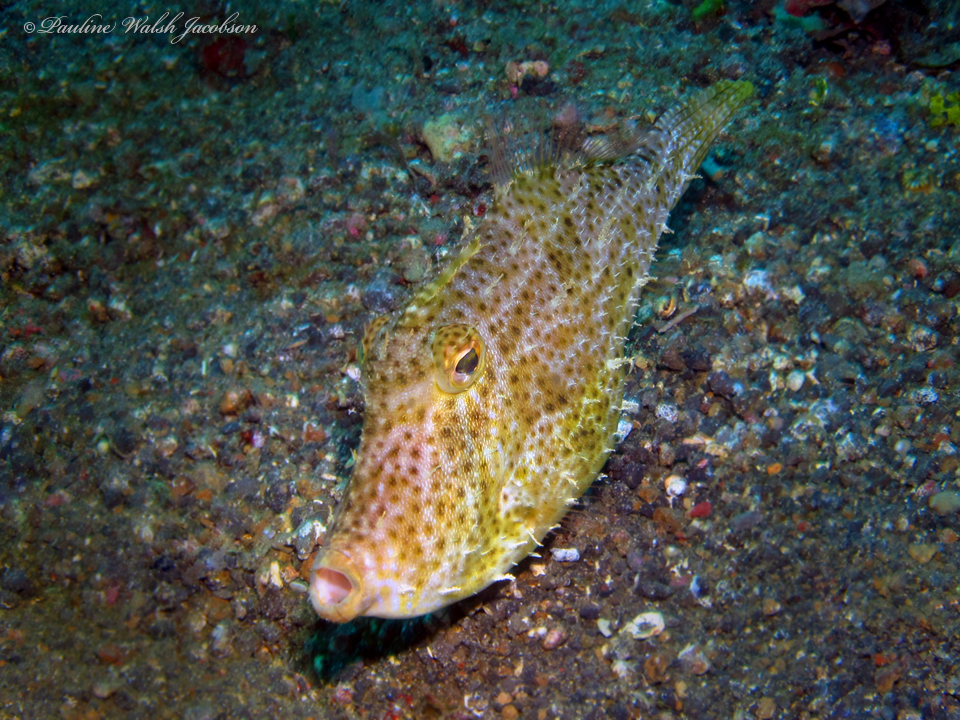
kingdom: Animalia
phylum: Chordata
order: Tetraodontiformes
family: Monacanthidae
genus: Pseudomonacanthus
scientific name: Pseudomonacanthus macrurus
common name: Blotchy filefish
